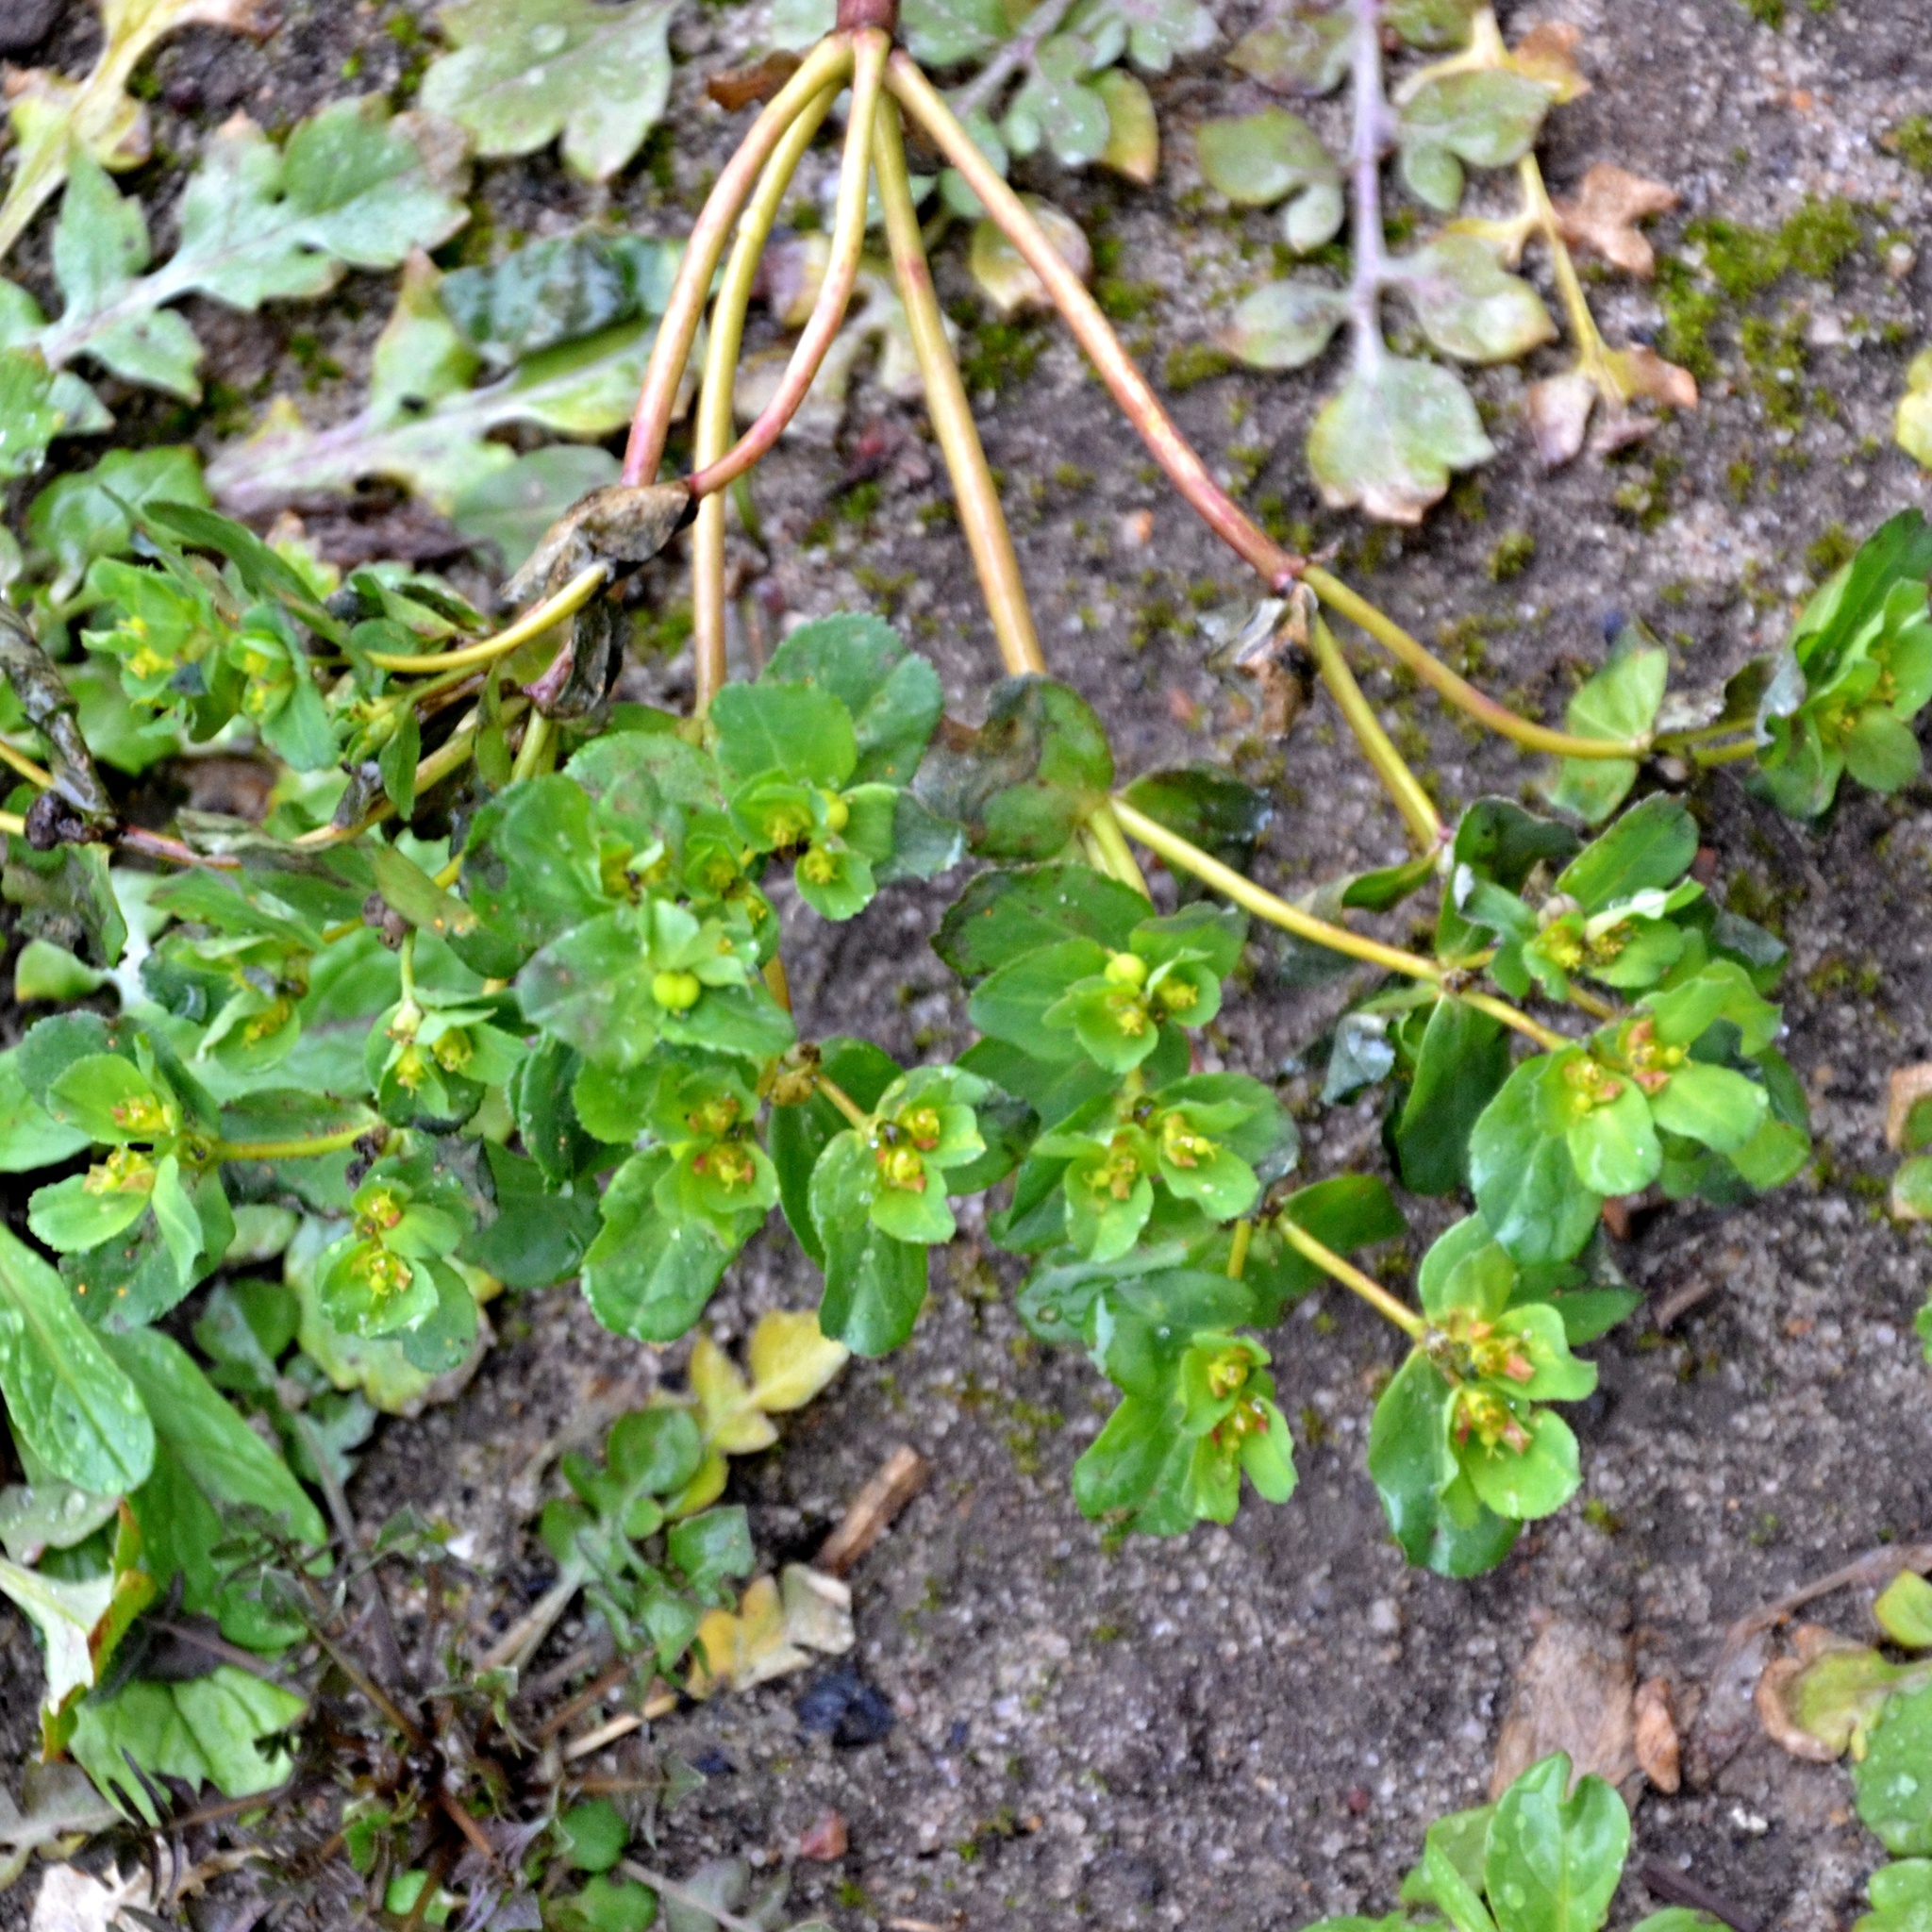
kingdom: Plantae
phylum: Tracheophyta
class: Magnoliopsida
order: Malpighiales
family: Euphorbiaceae
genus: Euphorbia
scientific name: Euphorbia helioscopia
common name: Sun spurge
